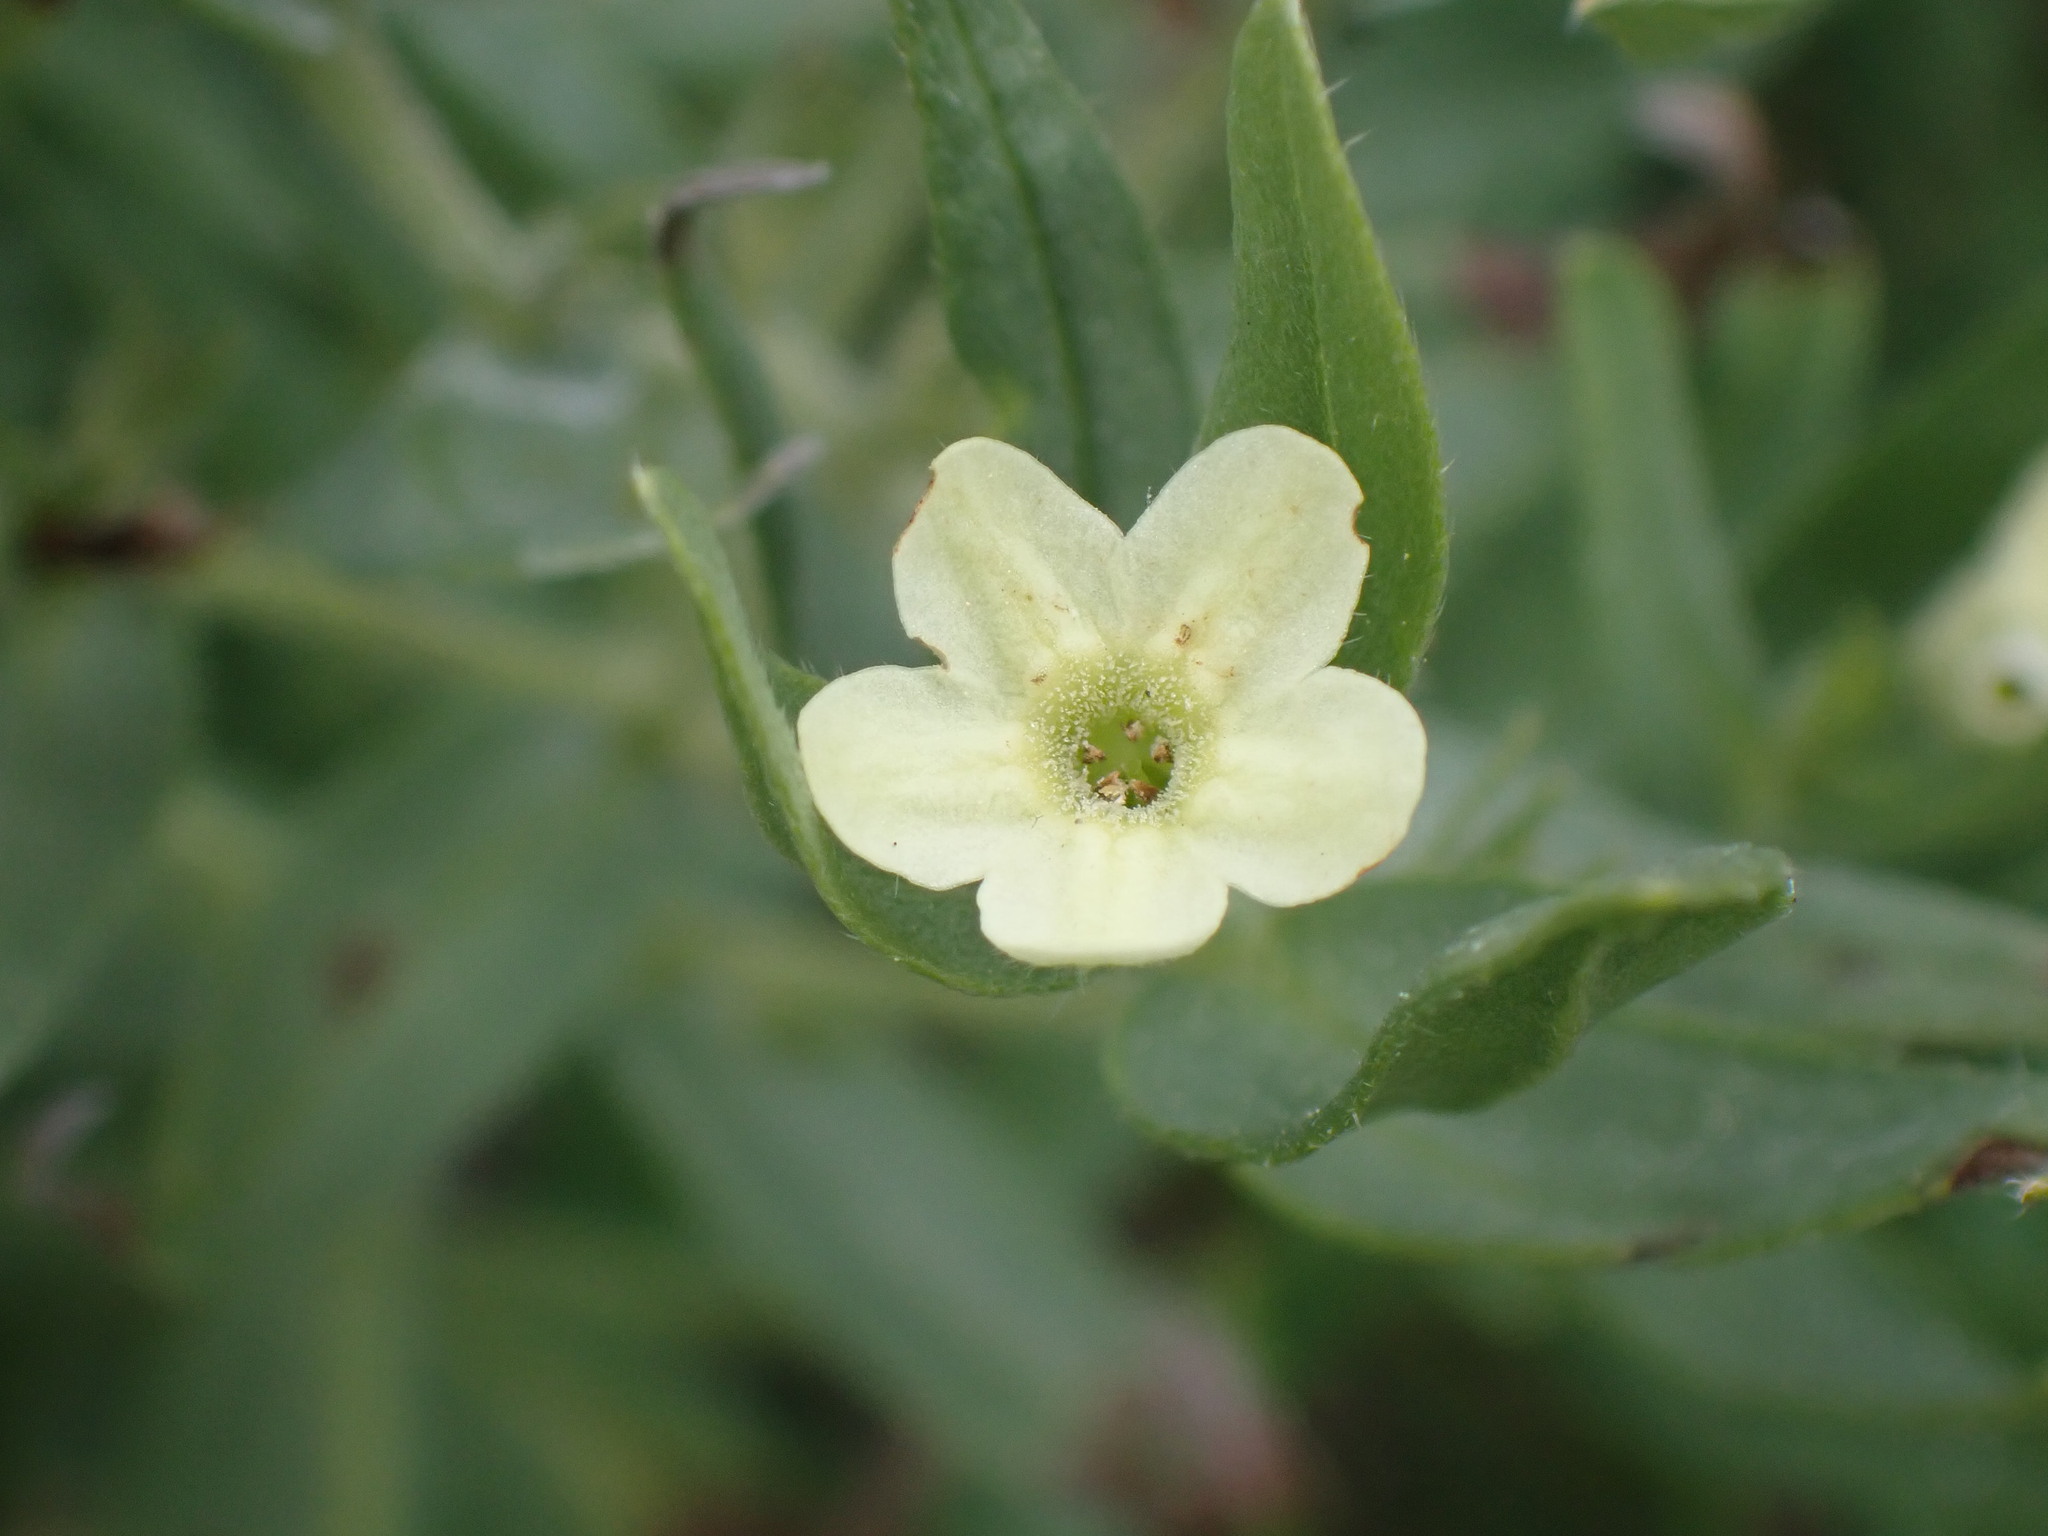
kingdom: Plantae
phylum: Tracheophyta
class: Magnoliopsida
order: Boraginales
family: Boraginaceae
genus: Lithospermum
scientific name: Lithospermum ruderale
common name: Western gromwell
